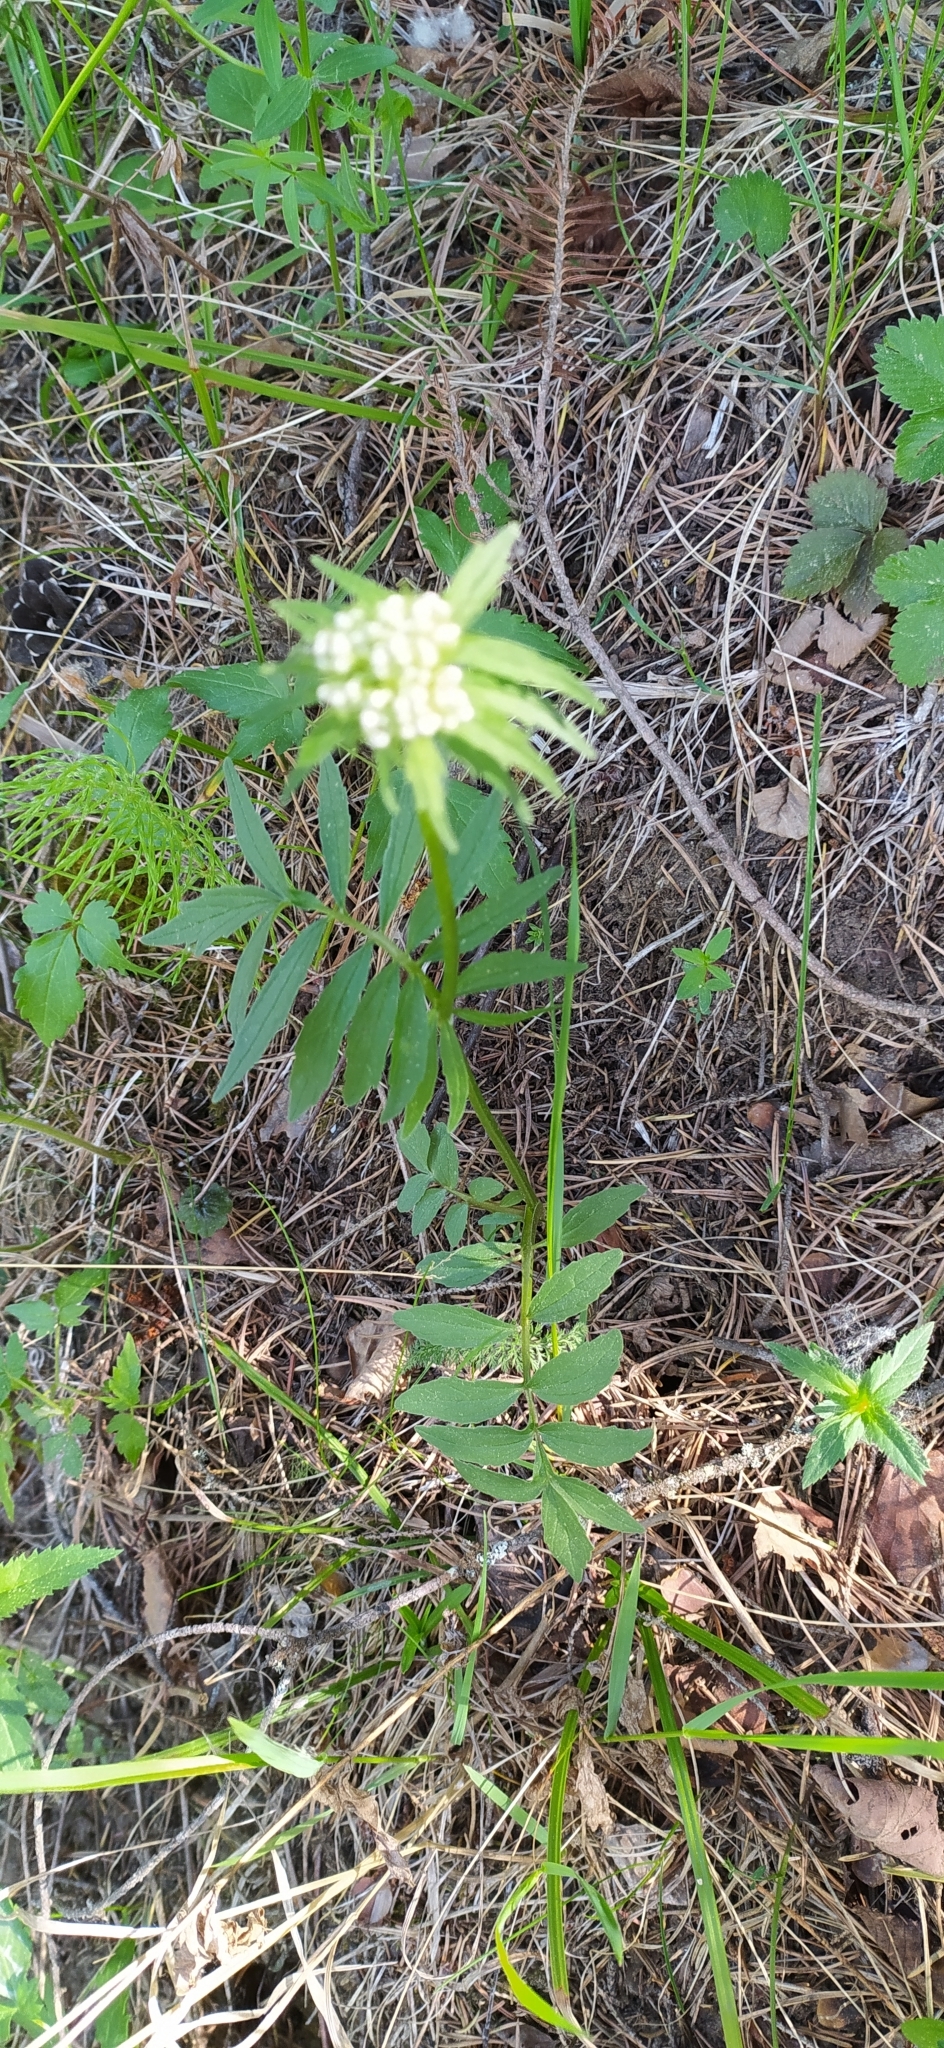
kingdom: Plantae
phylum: Tracheophyta
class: Magnoliopsida
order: Dipsacales
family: Caprifoliaceae
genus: Valeriana
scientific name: Valeriana wolgensis
